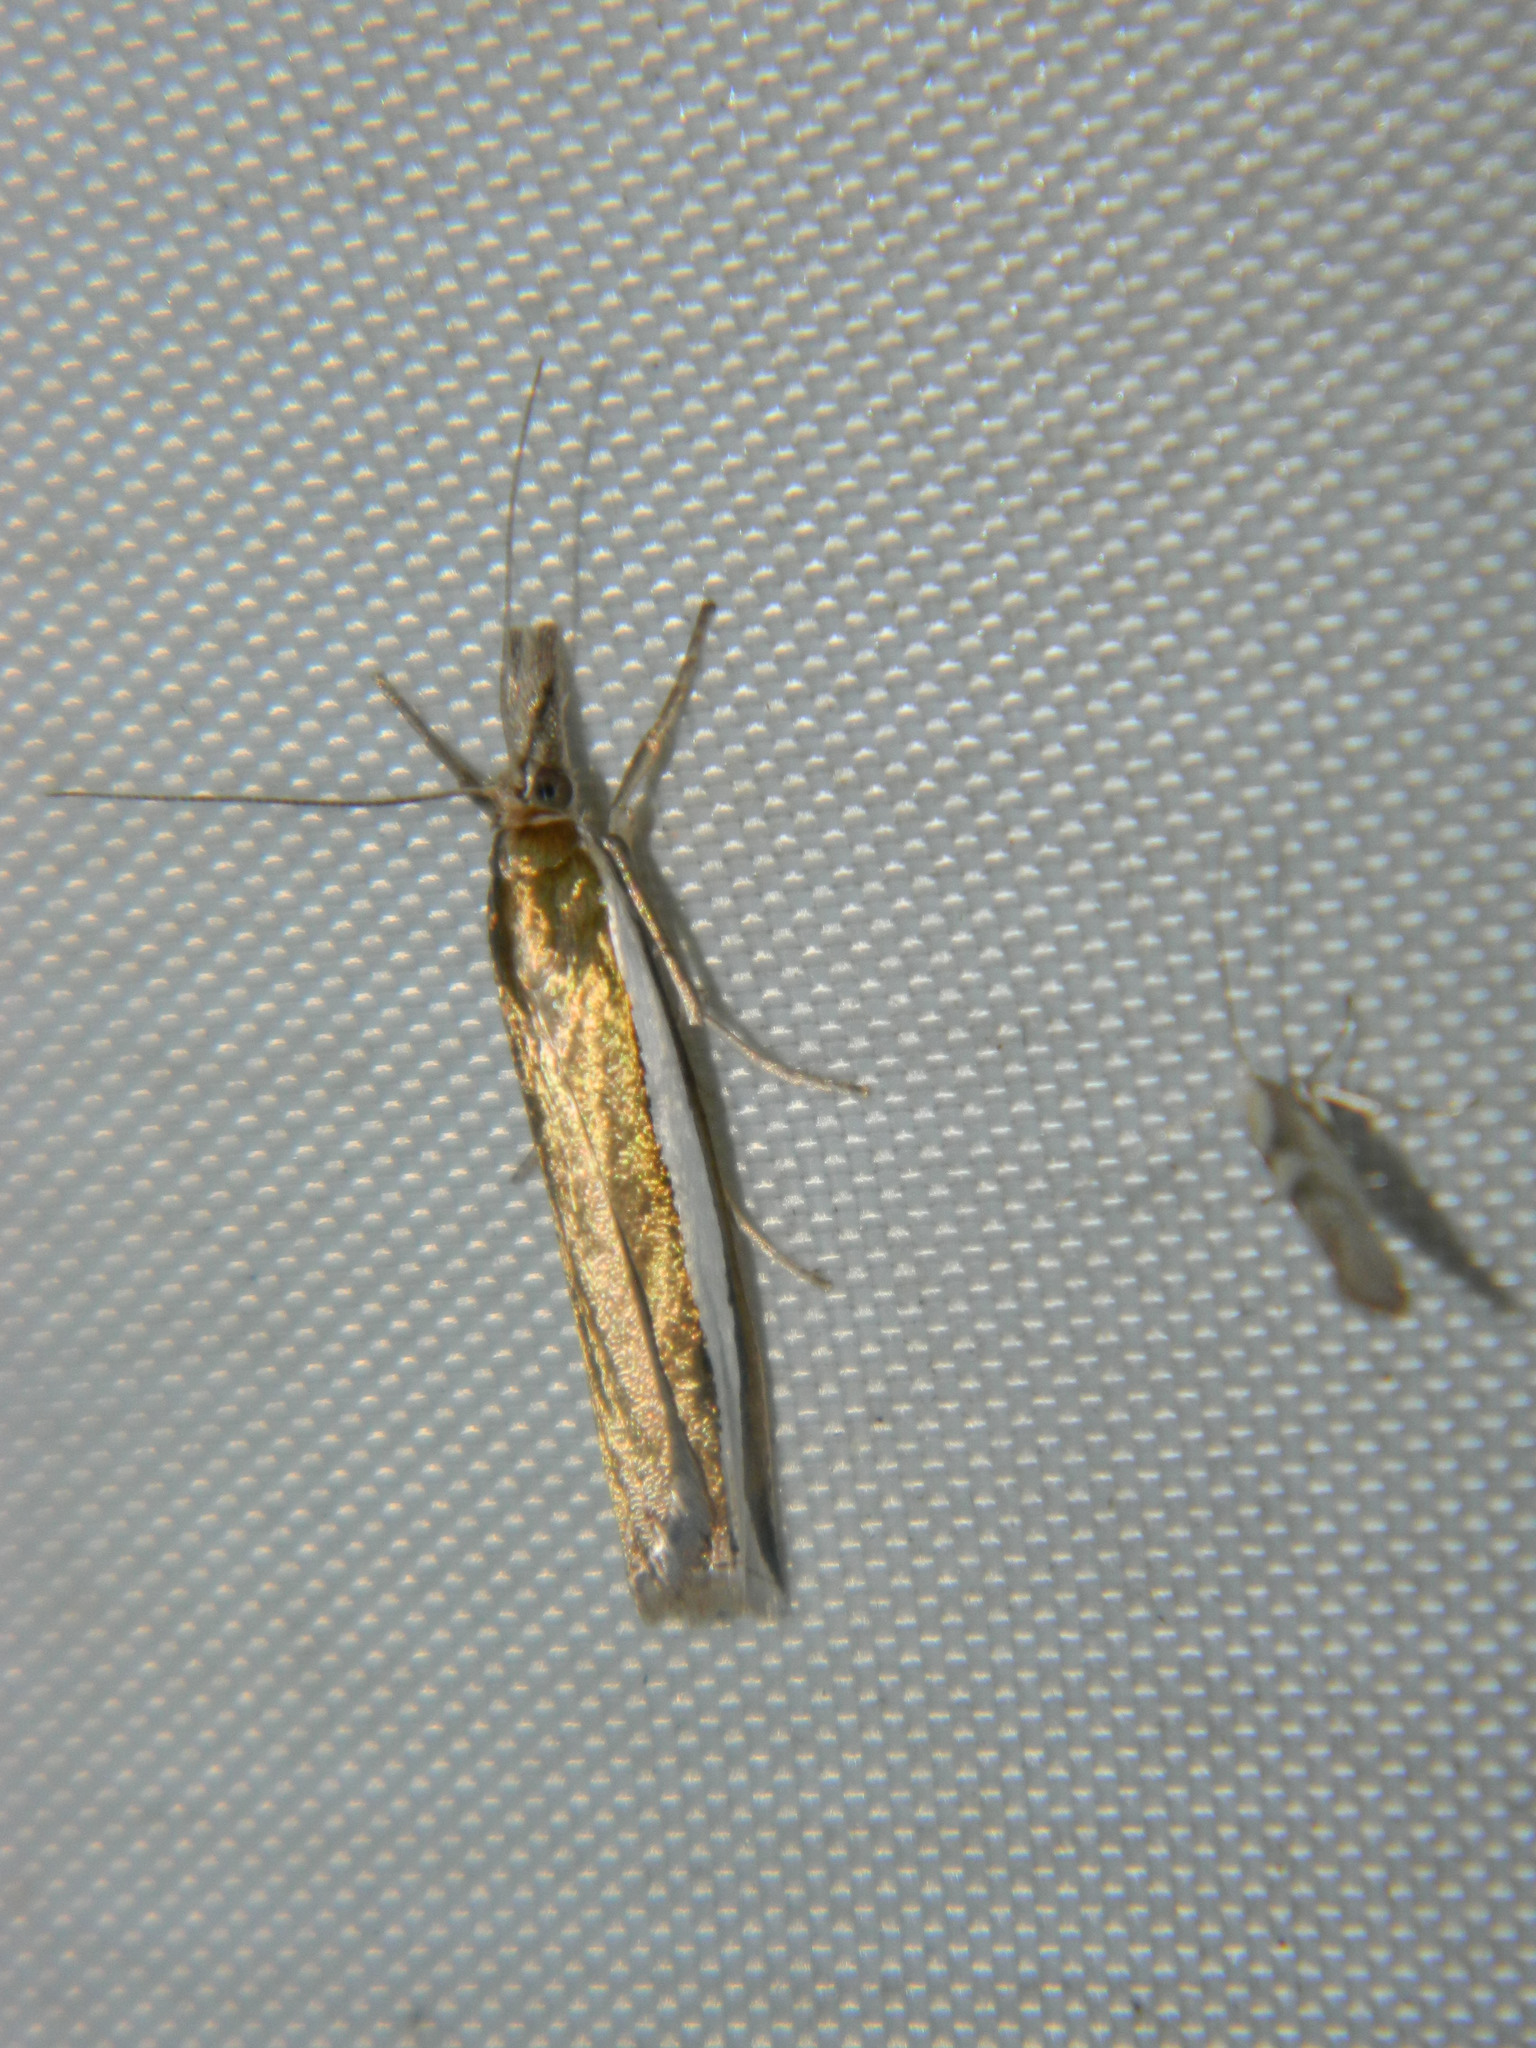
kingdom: Animalia
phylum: Arthropoda
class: Insecta
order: Lepidoptera
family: Crambidae
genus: Crambus
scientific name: Crambus unistriatellus
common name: Wide-stripe grass-veneer moth
